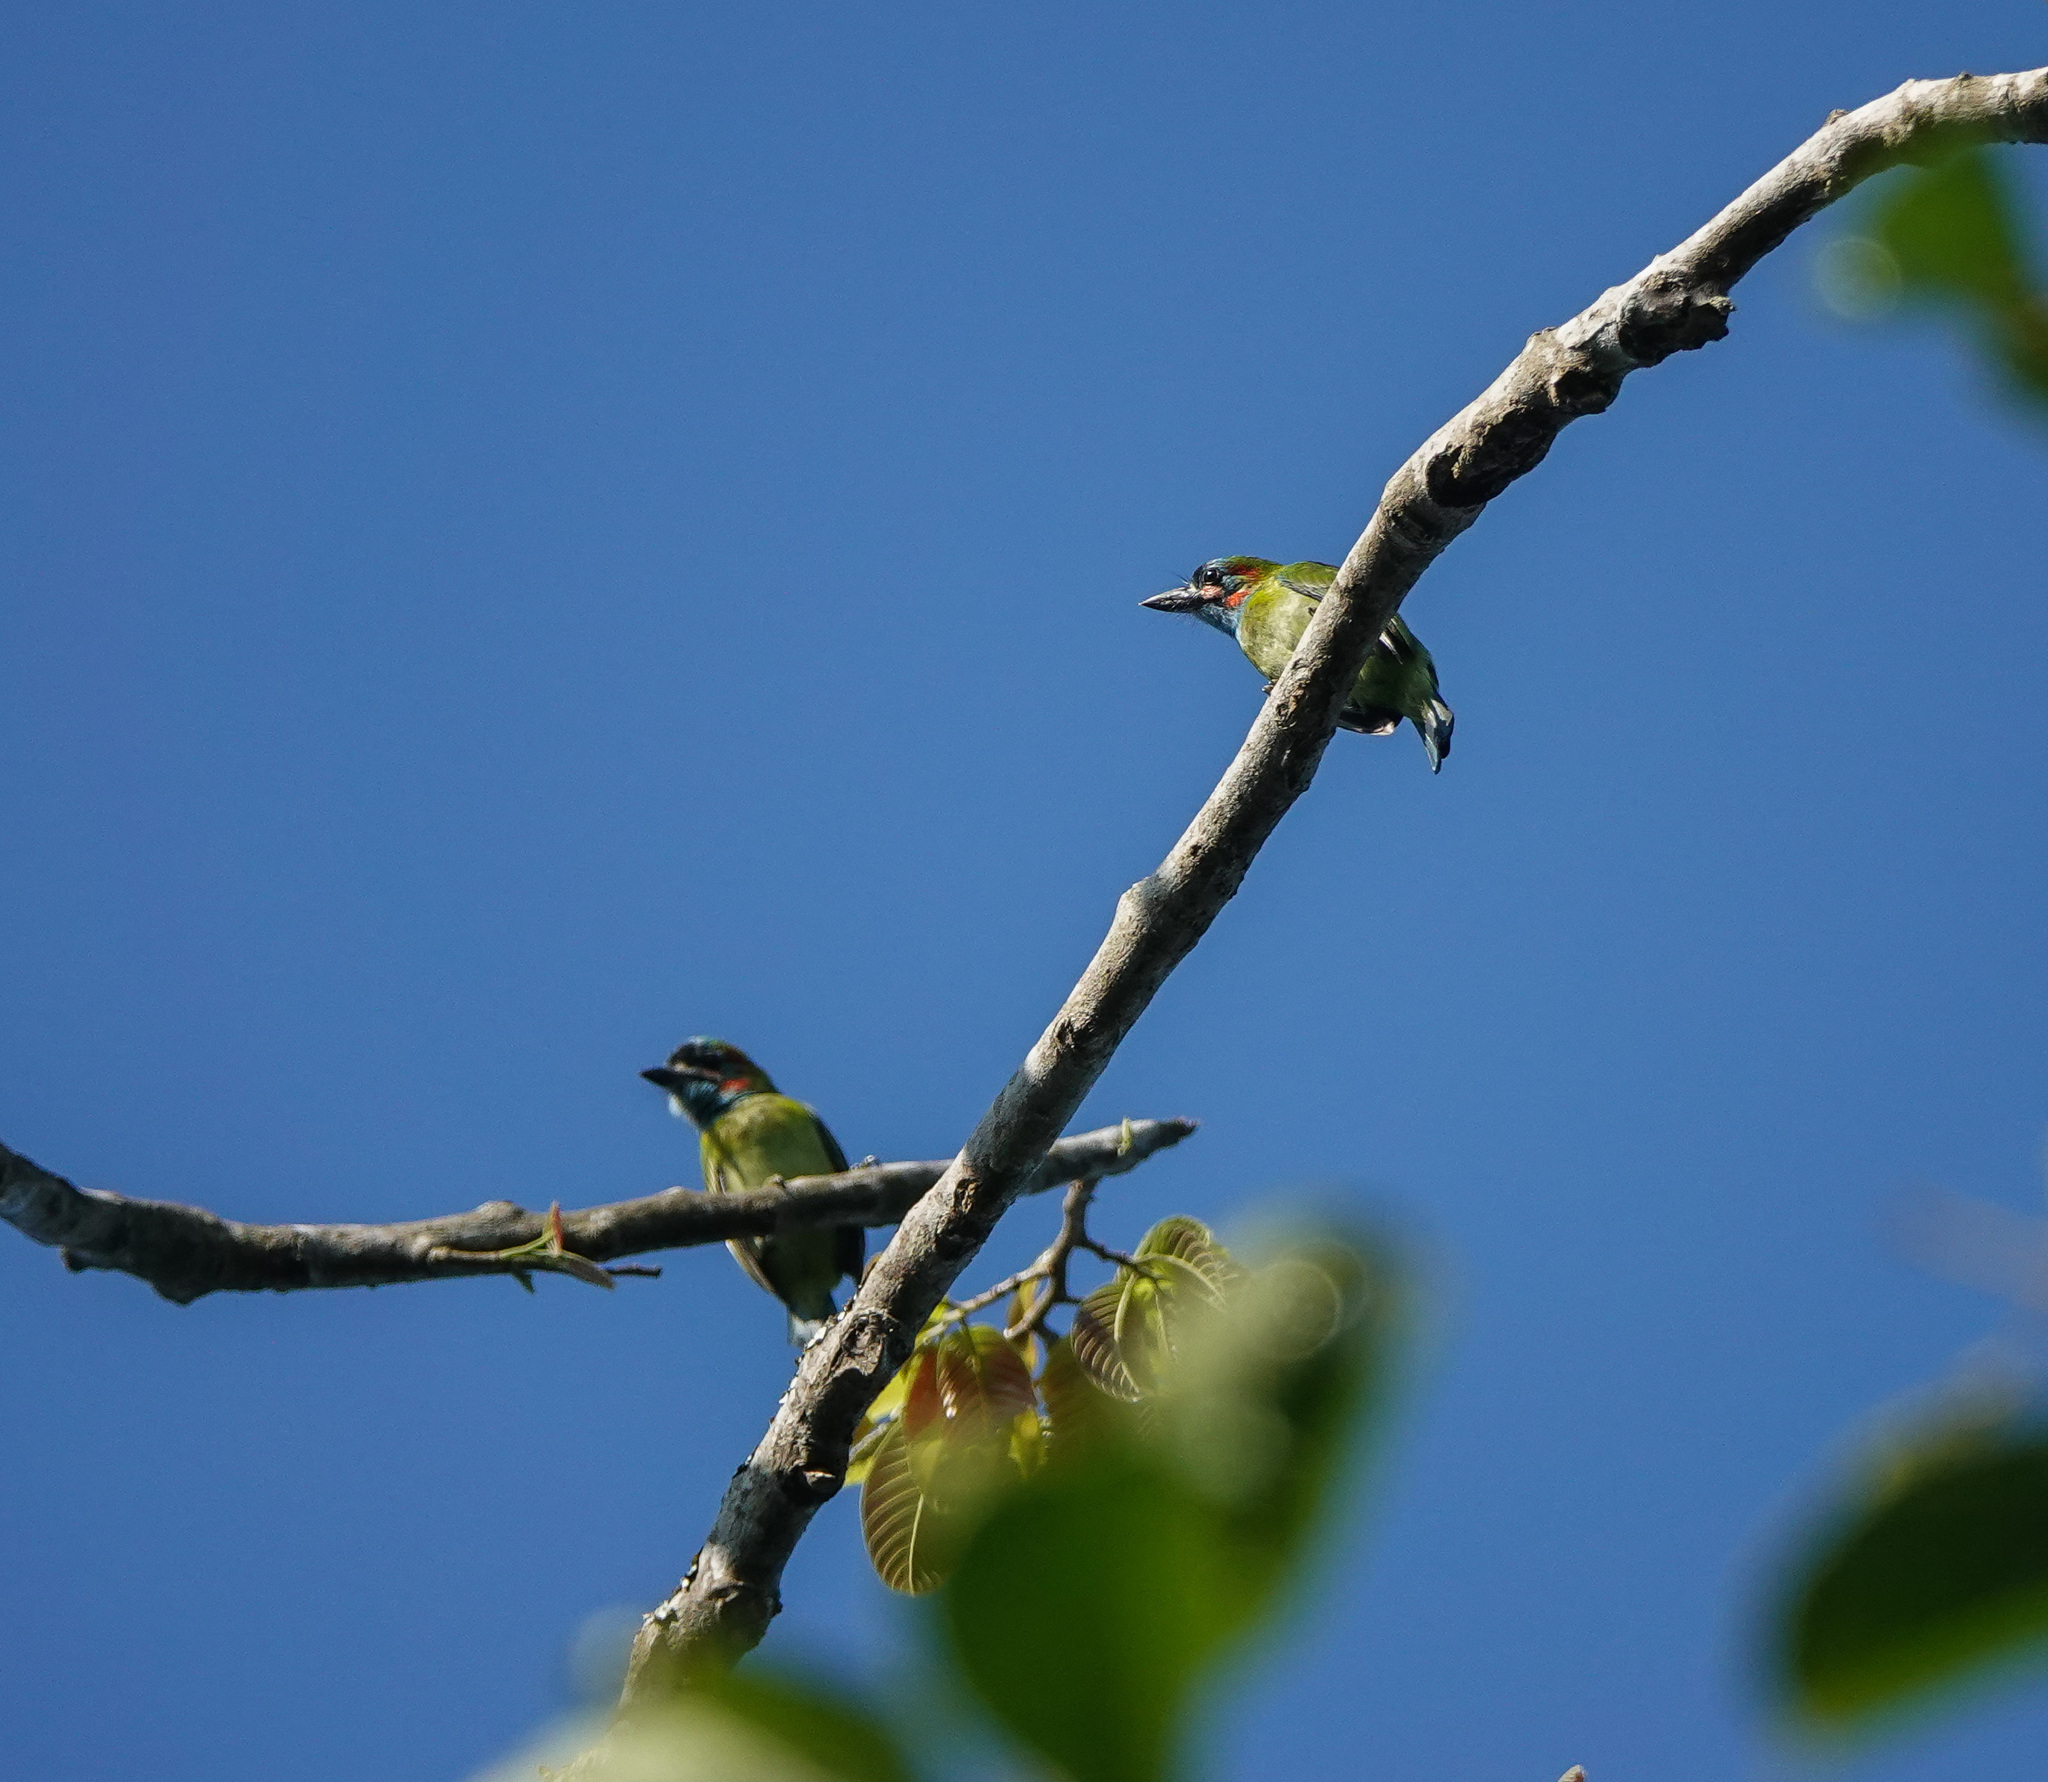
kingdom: Animalia
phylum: Chordata
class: Aves
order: Piciformes
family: Megalaimidae
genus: Psilopogon
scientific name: Psilopogon duvaucelii
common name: Blue-eared barbet
